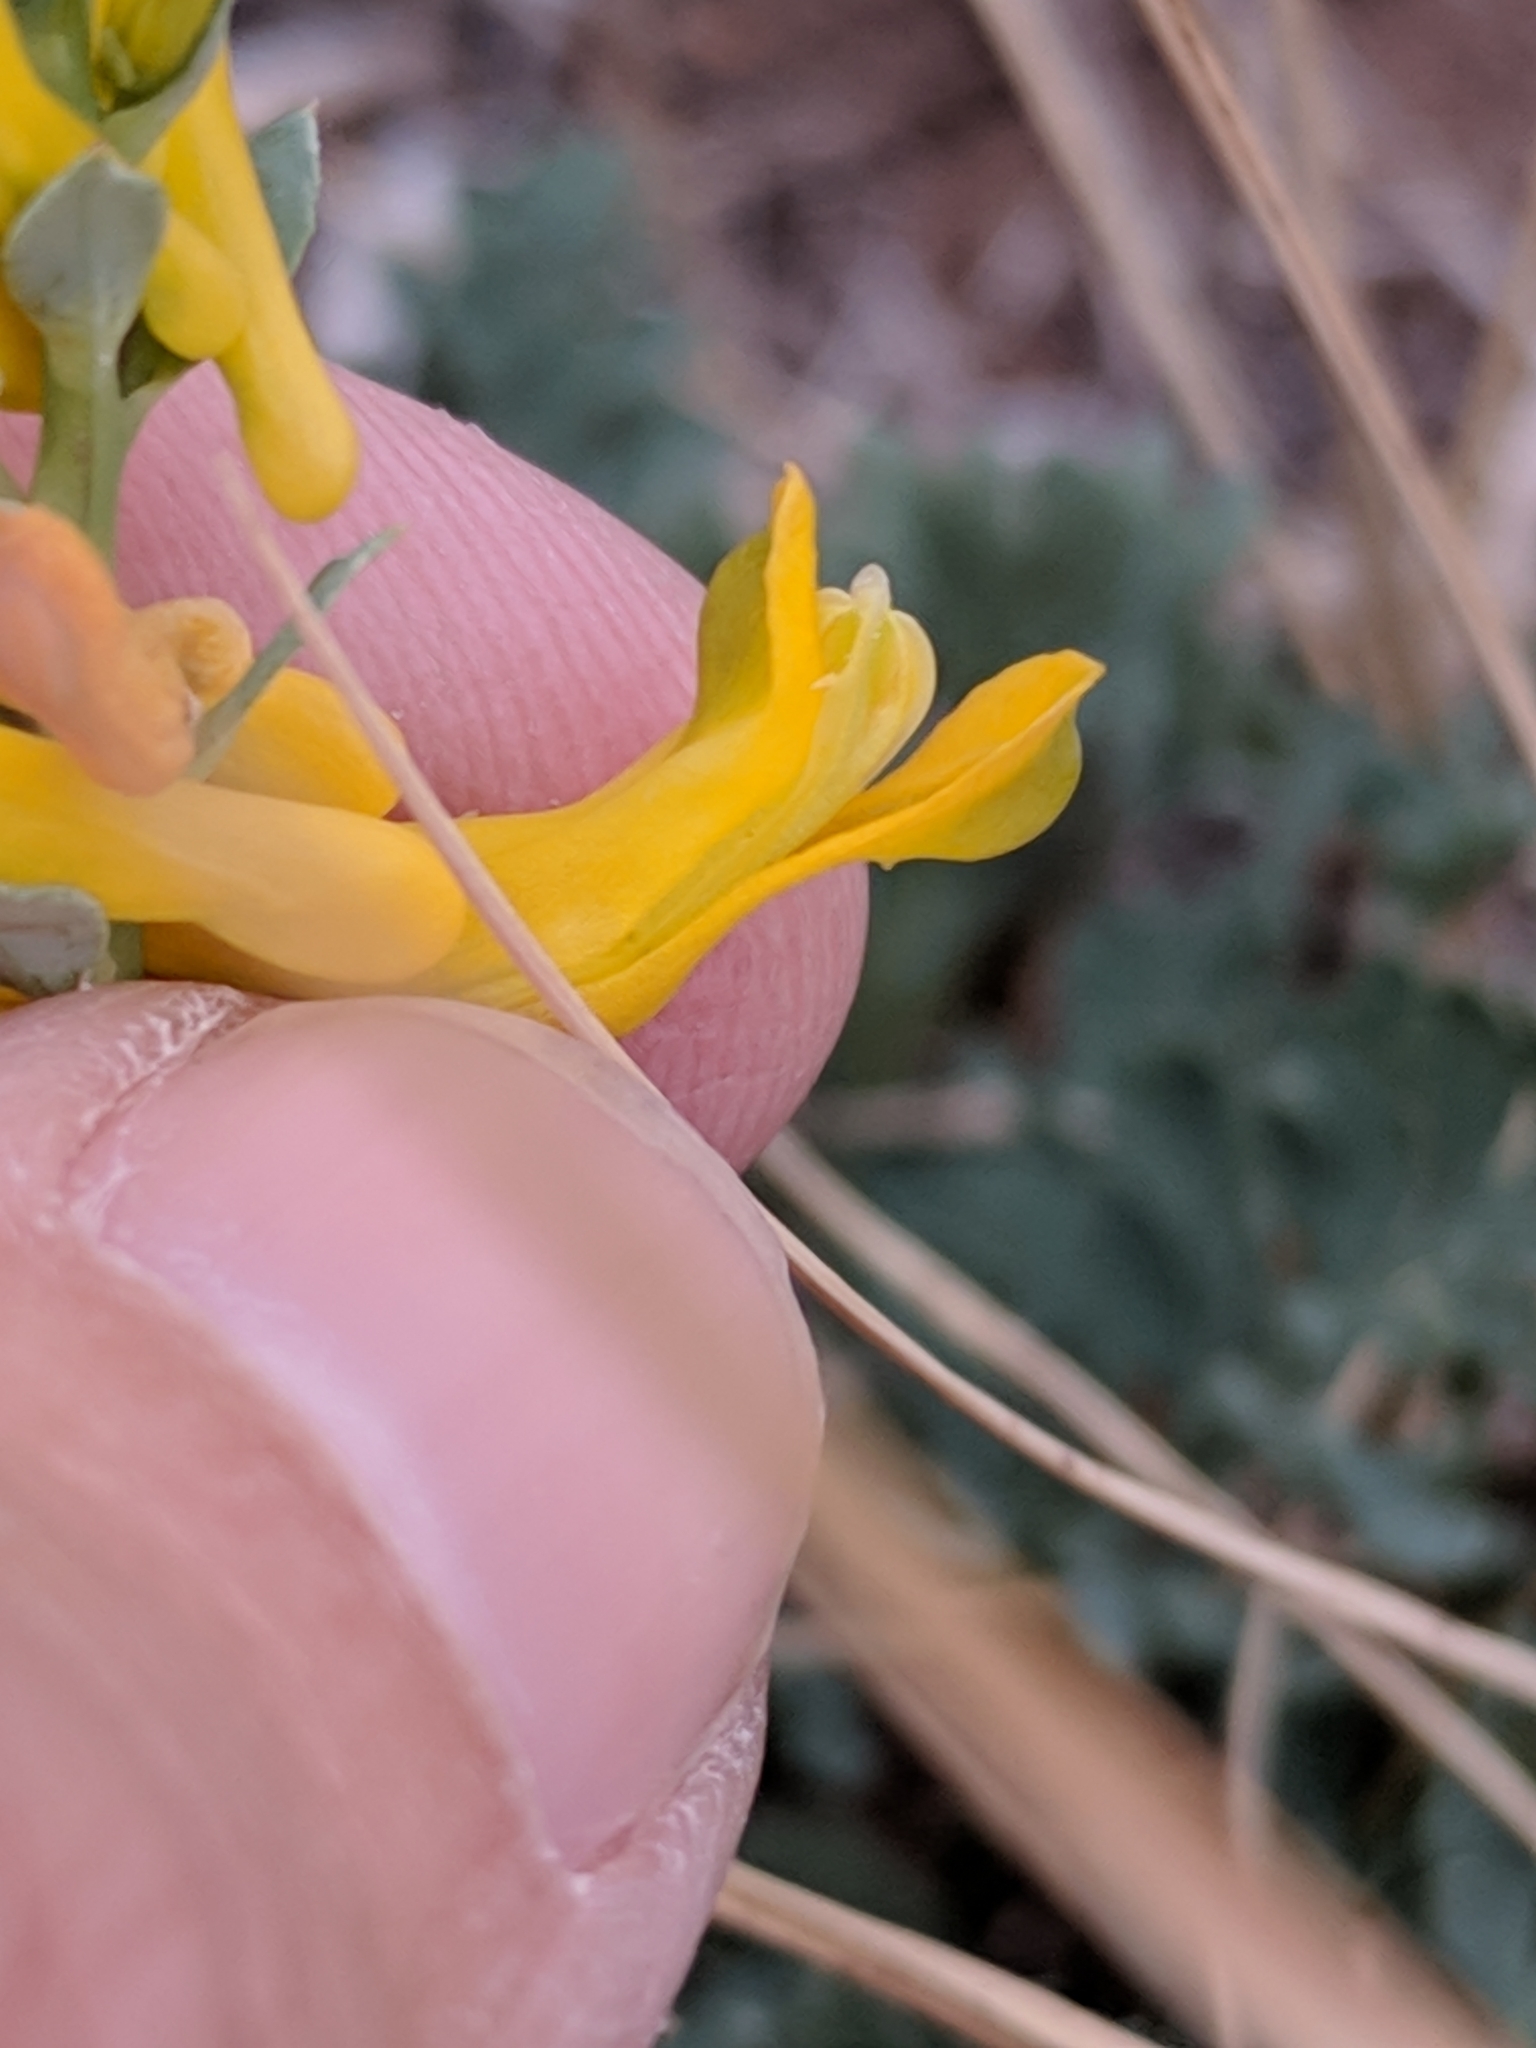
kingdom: Plantae
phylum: Tracheophyta
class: Magnoliopsida
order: Ranunculales
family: Papaveraceae
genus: Corydalis
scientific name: Corydalis aurea
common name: Golden corydalis
